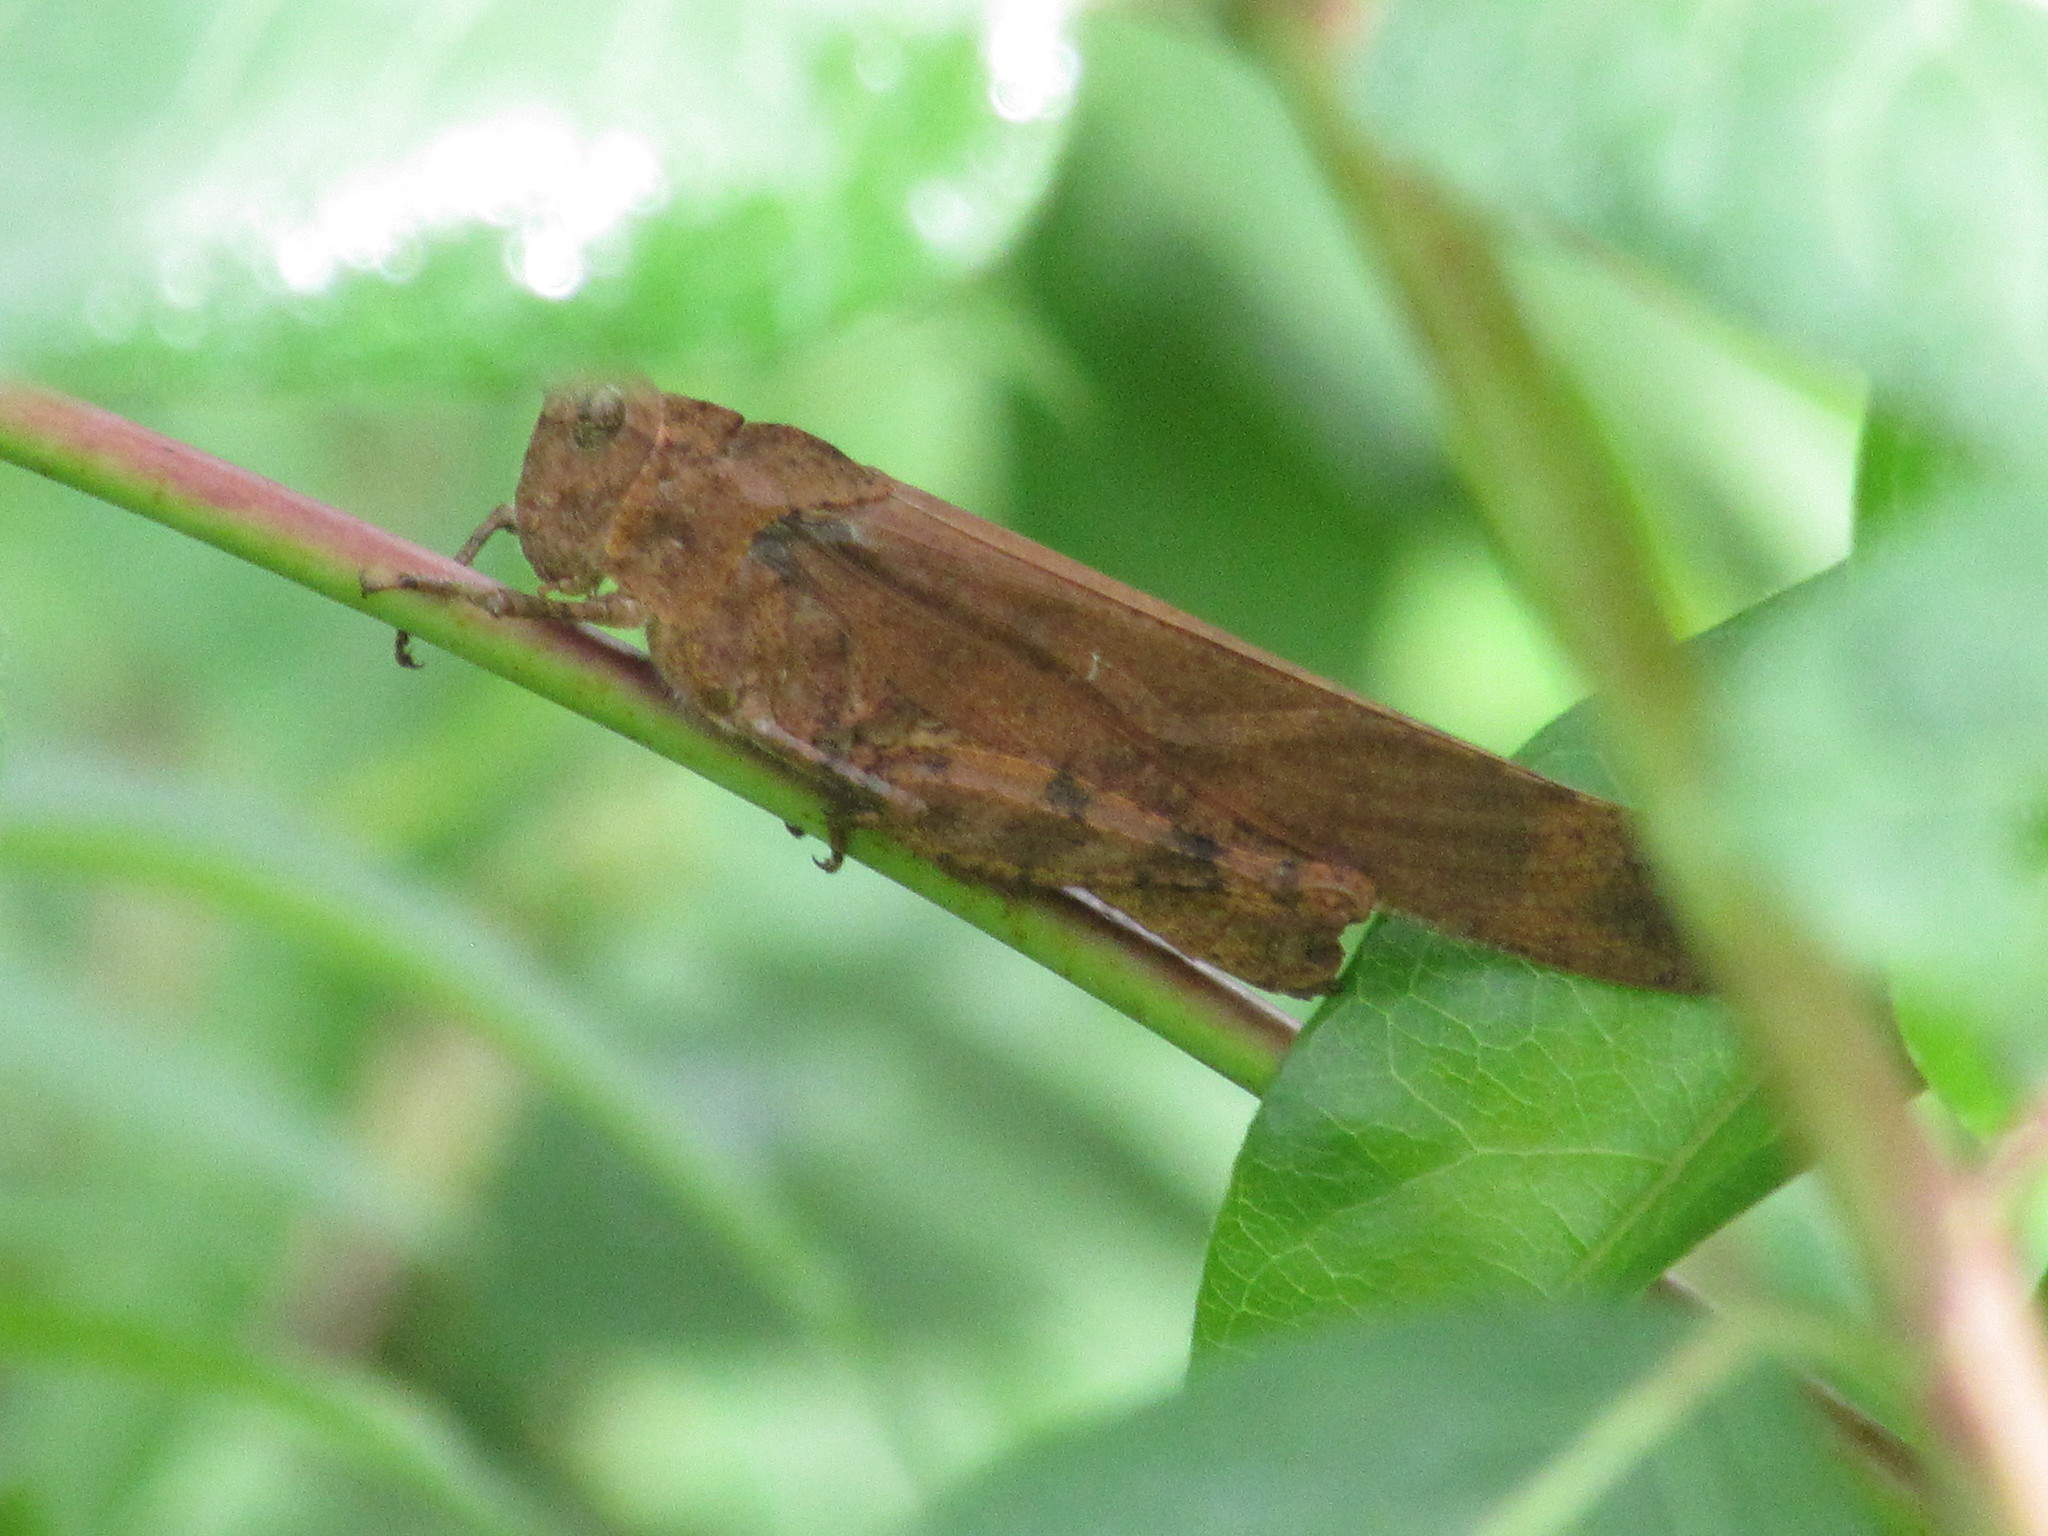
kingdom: Animalia
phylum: Arthropoda
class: Insecta
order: Orthoptera
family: Acrididae
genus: Dissosteira
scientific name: Dissosteira carolina
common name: Carolina grasshopper
